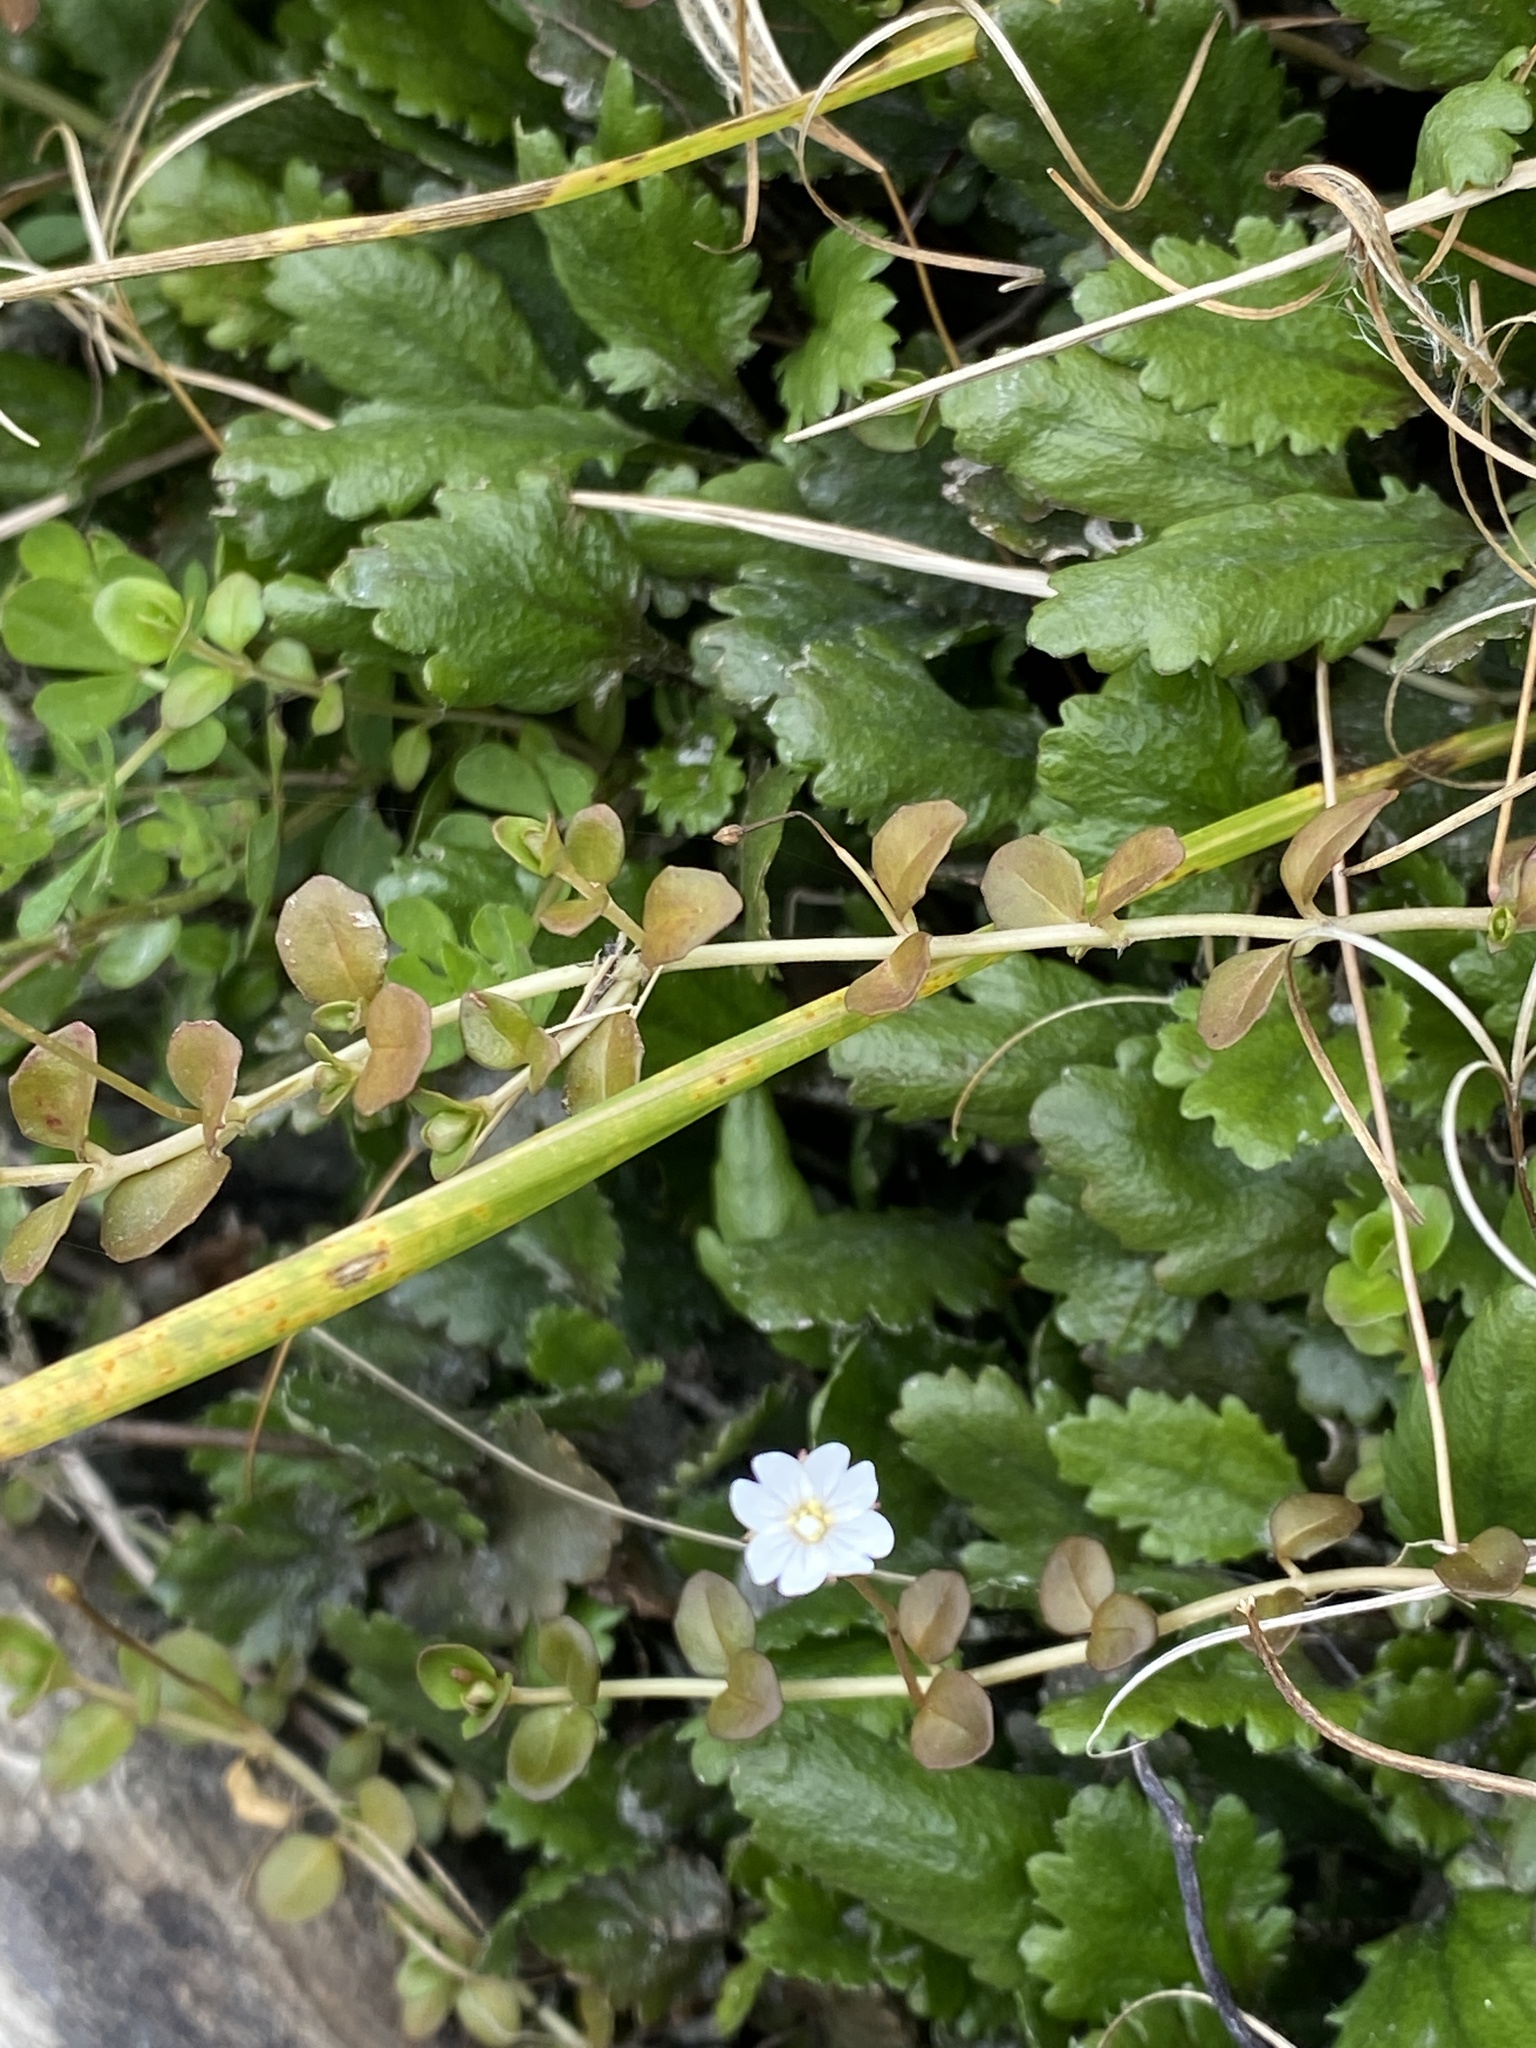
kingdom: Plantae
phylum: Tracheophyta
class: Magnoliopsida
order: Myrtales
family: Onagraceae
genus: Epilobium
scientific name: Epilobium brunnescens
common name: New zealand willowherb
